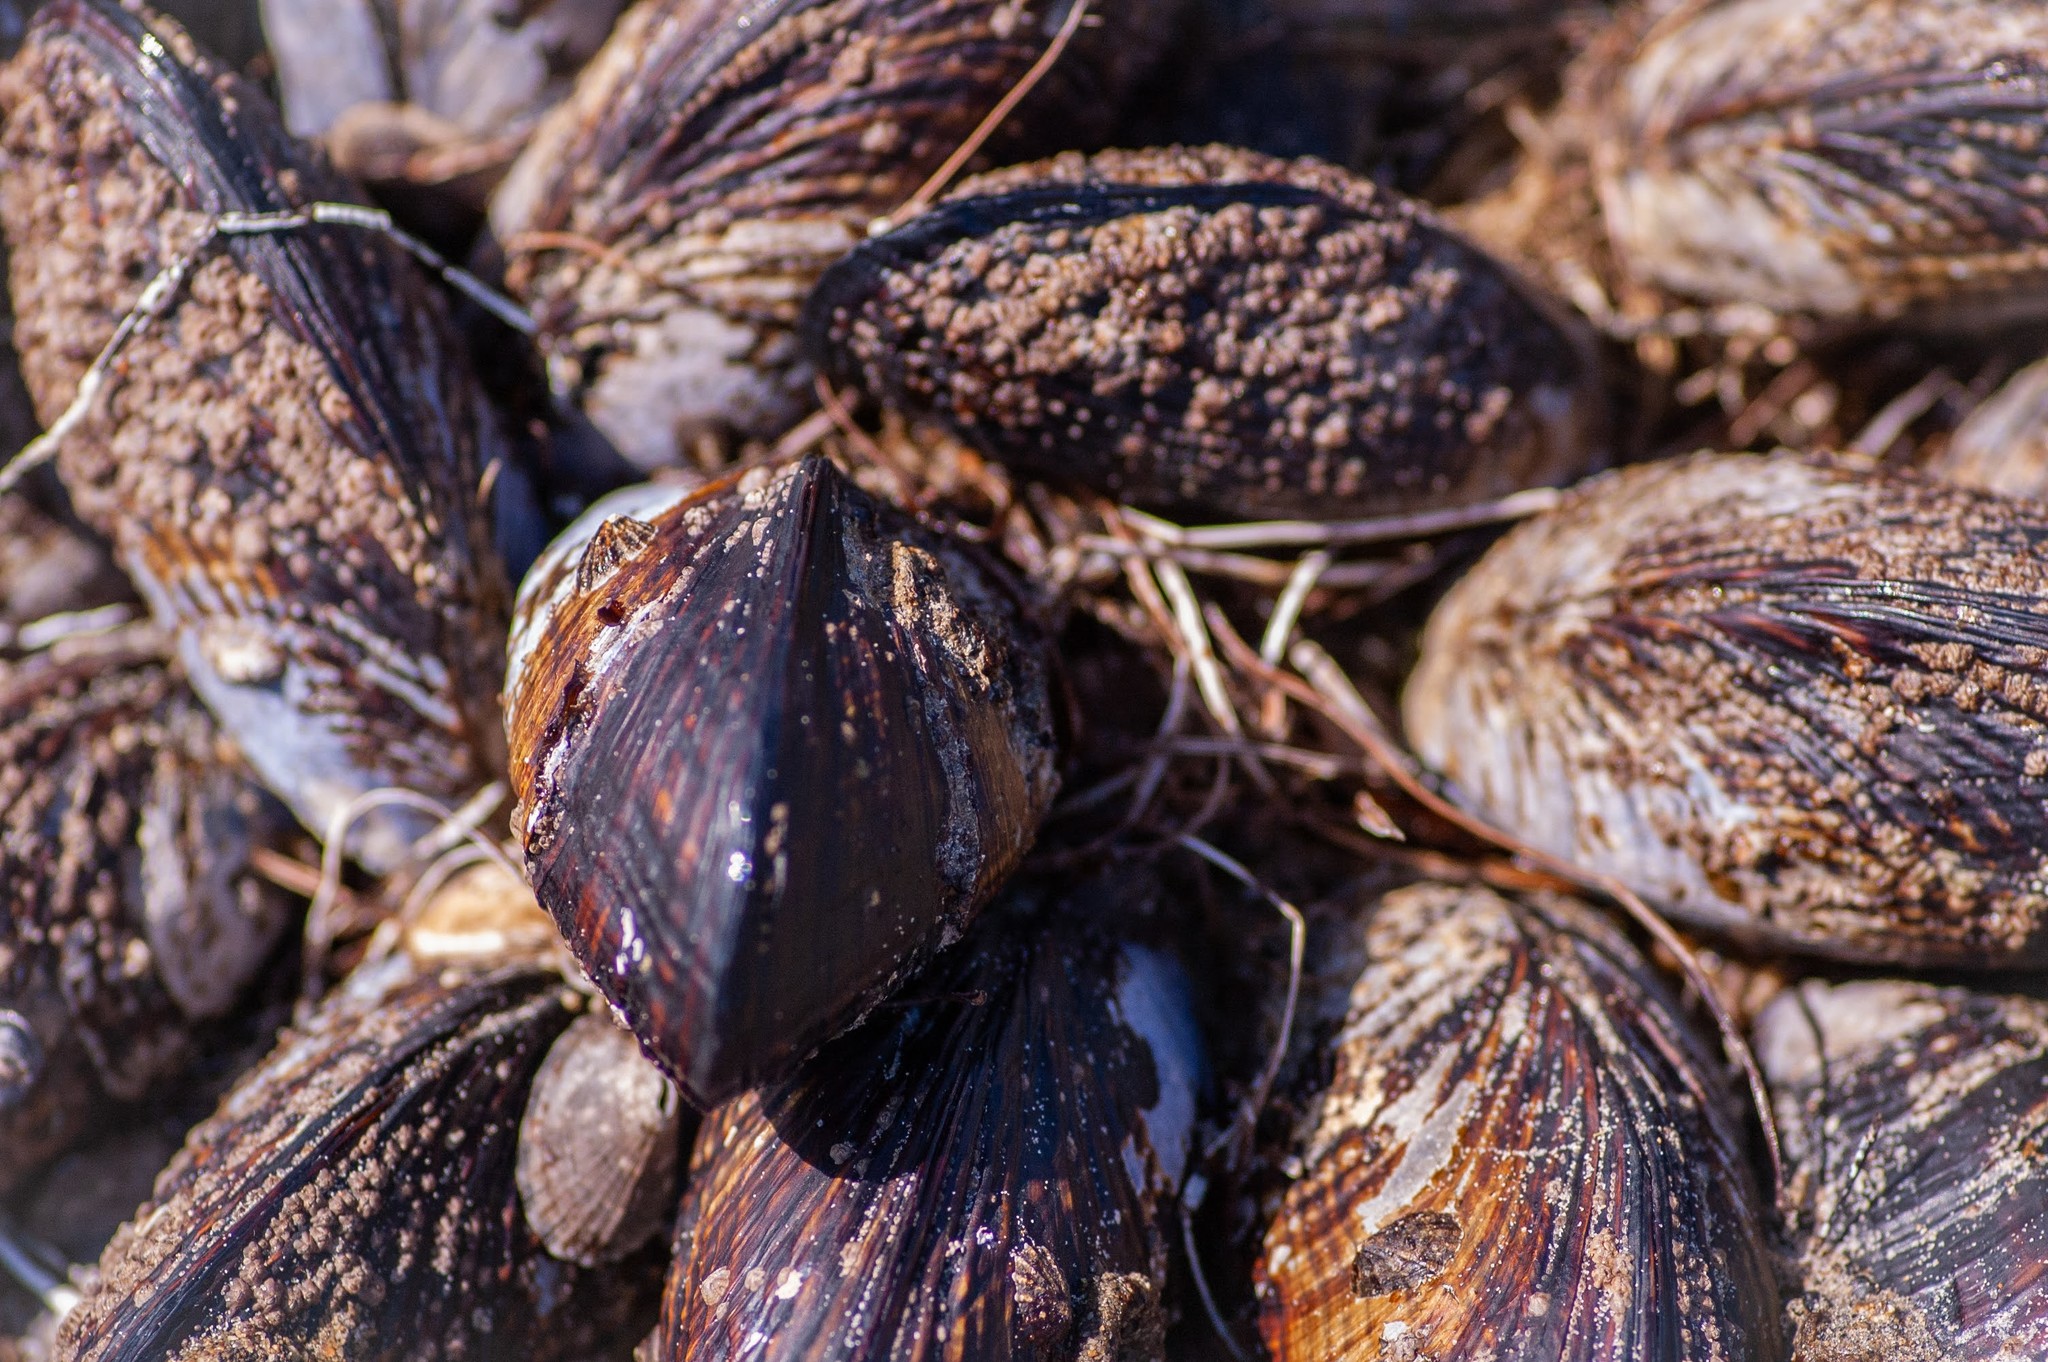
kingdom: Animalia
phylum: Mollusca
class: Bivalvia
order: Mytilida
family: Mytilidae
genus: Mytilus
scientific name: Mytilus californianus
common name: California mussel
